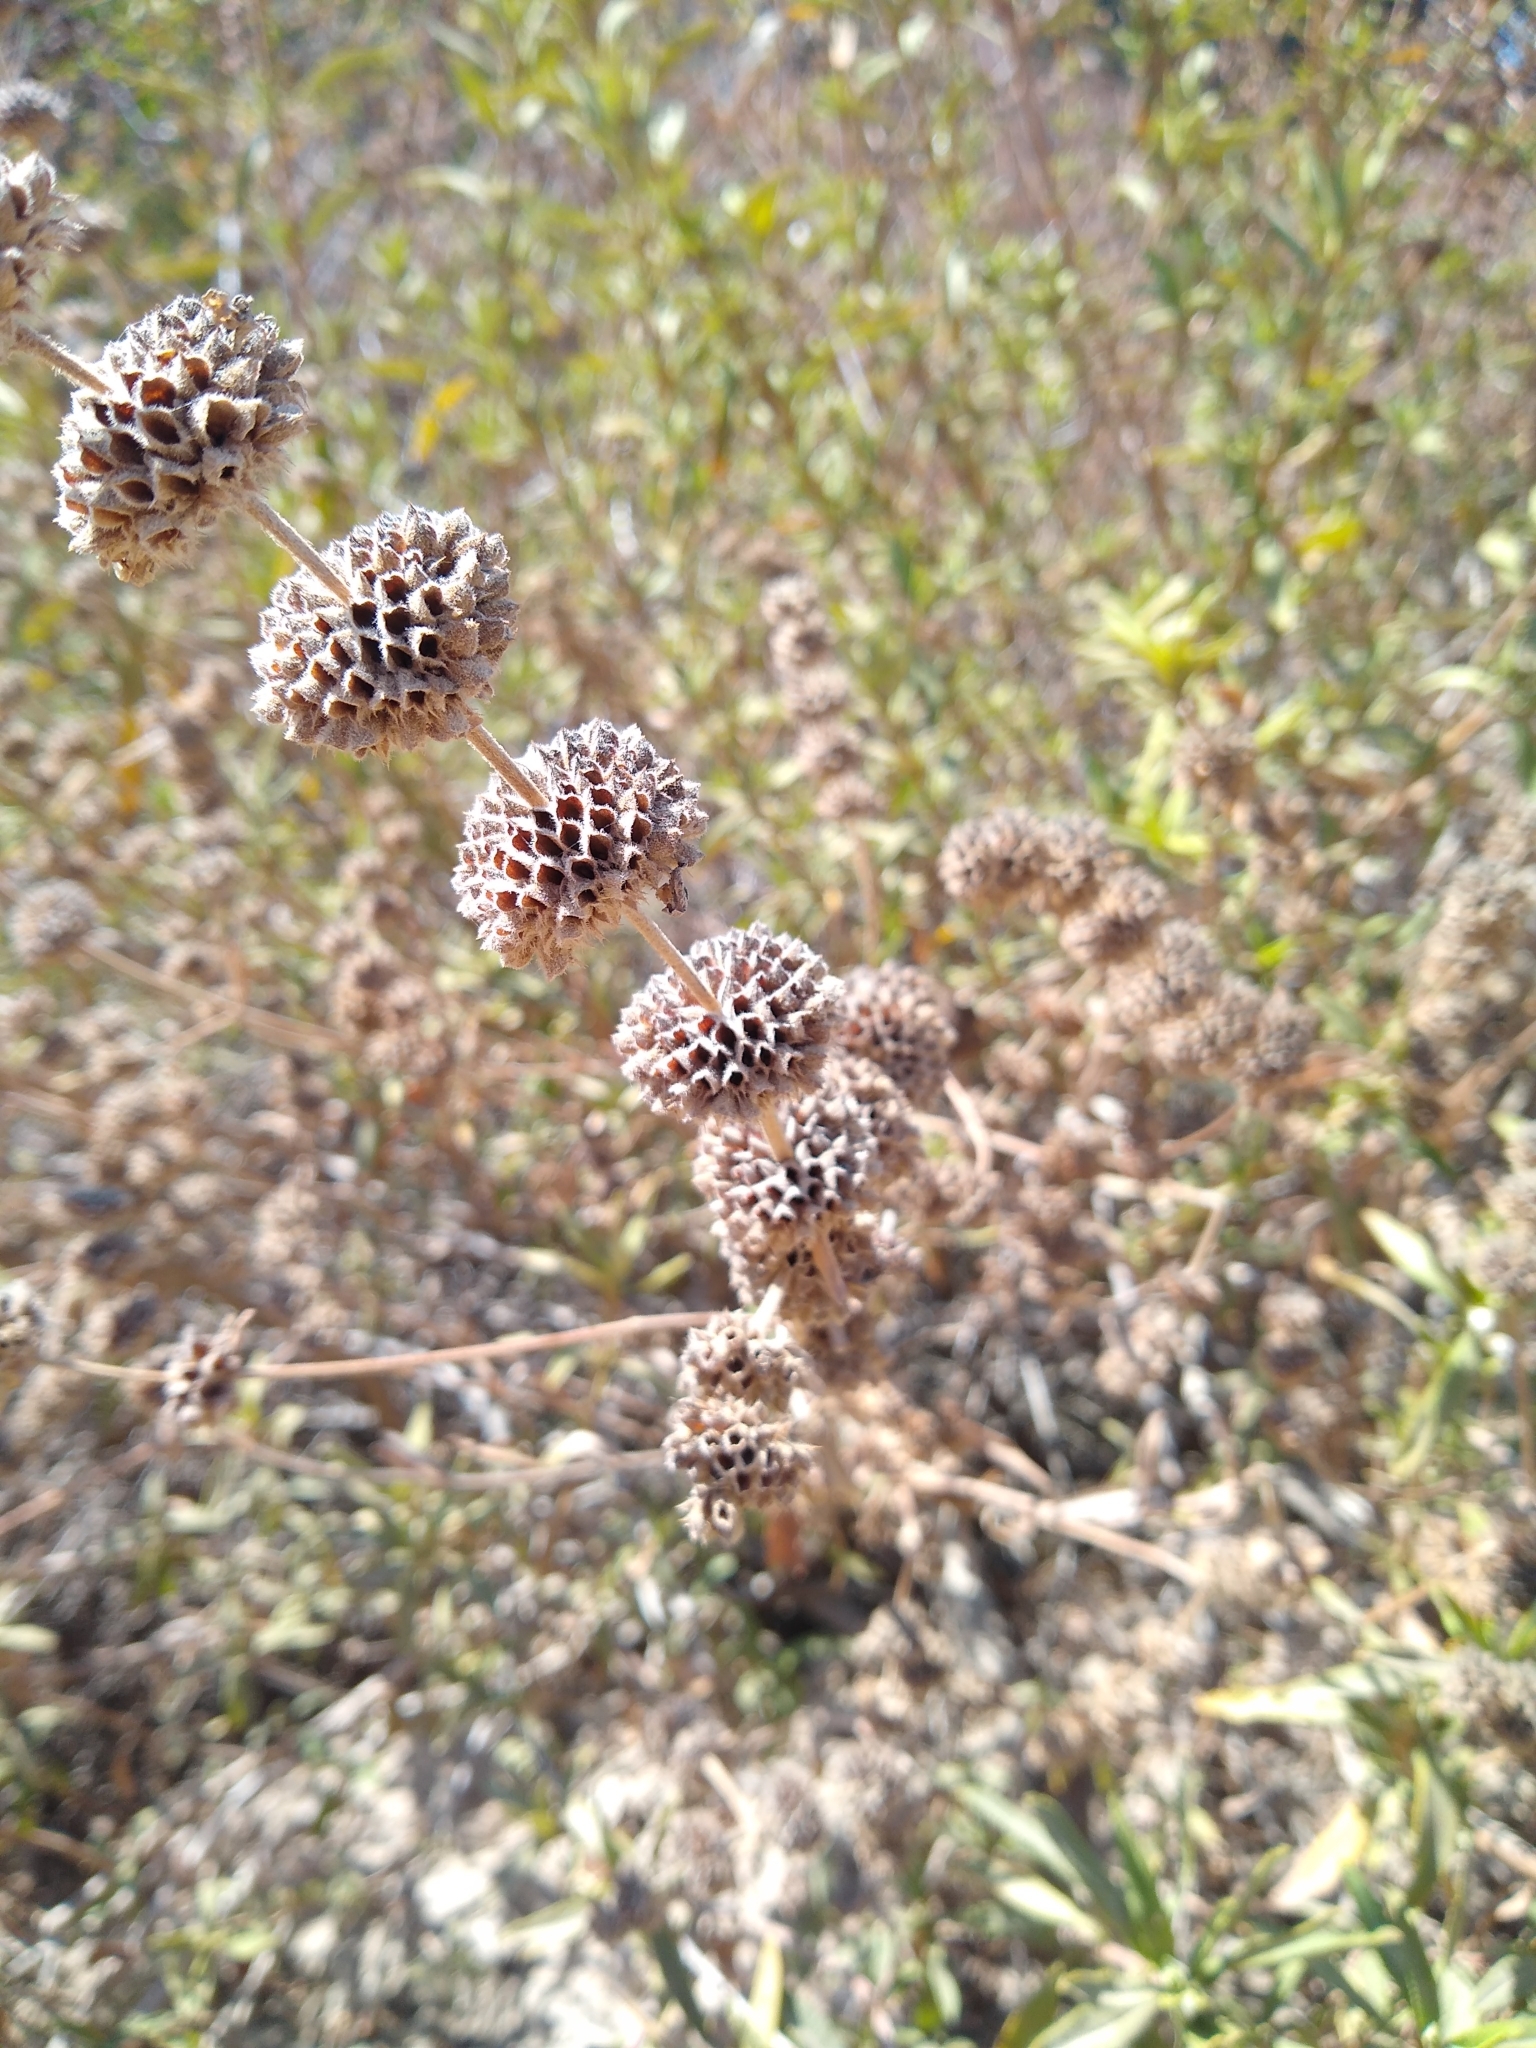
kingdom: Plantae
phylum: Tracheophyta
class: Magnoliopsida
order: Lamiales
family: Lamiaceae
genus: Salvia
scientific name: Salvia mellifera
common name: Black sage
